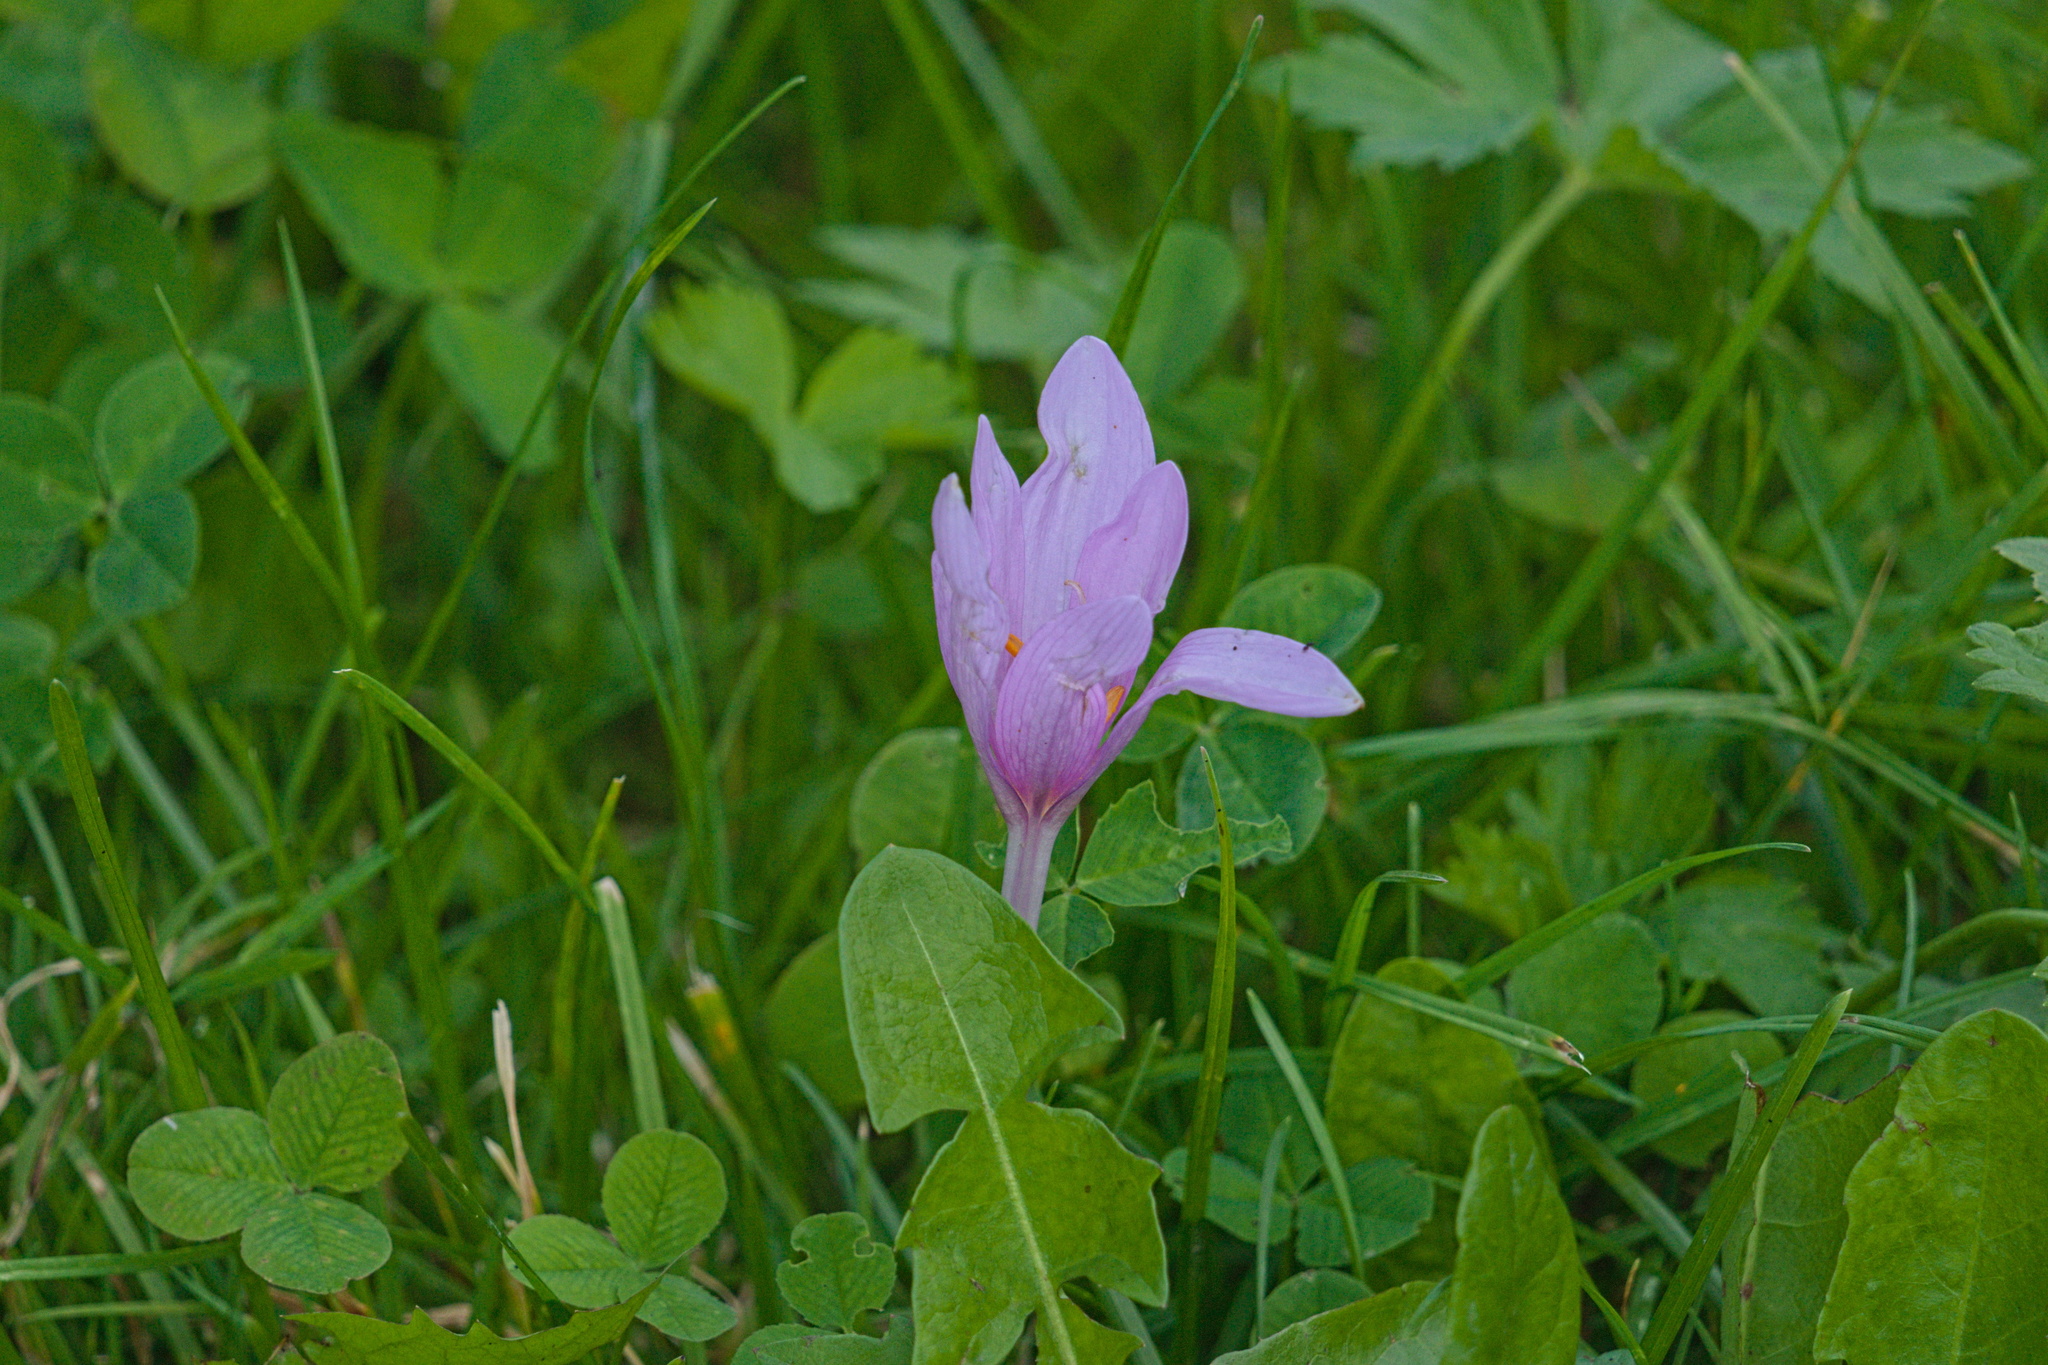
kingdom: Plantae
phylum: Tracheophyta
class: Liliopsida
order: Liliales
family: Colchicaceae
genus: Colchicum
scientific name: Colchicum autumnale
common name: Autumn crocus
